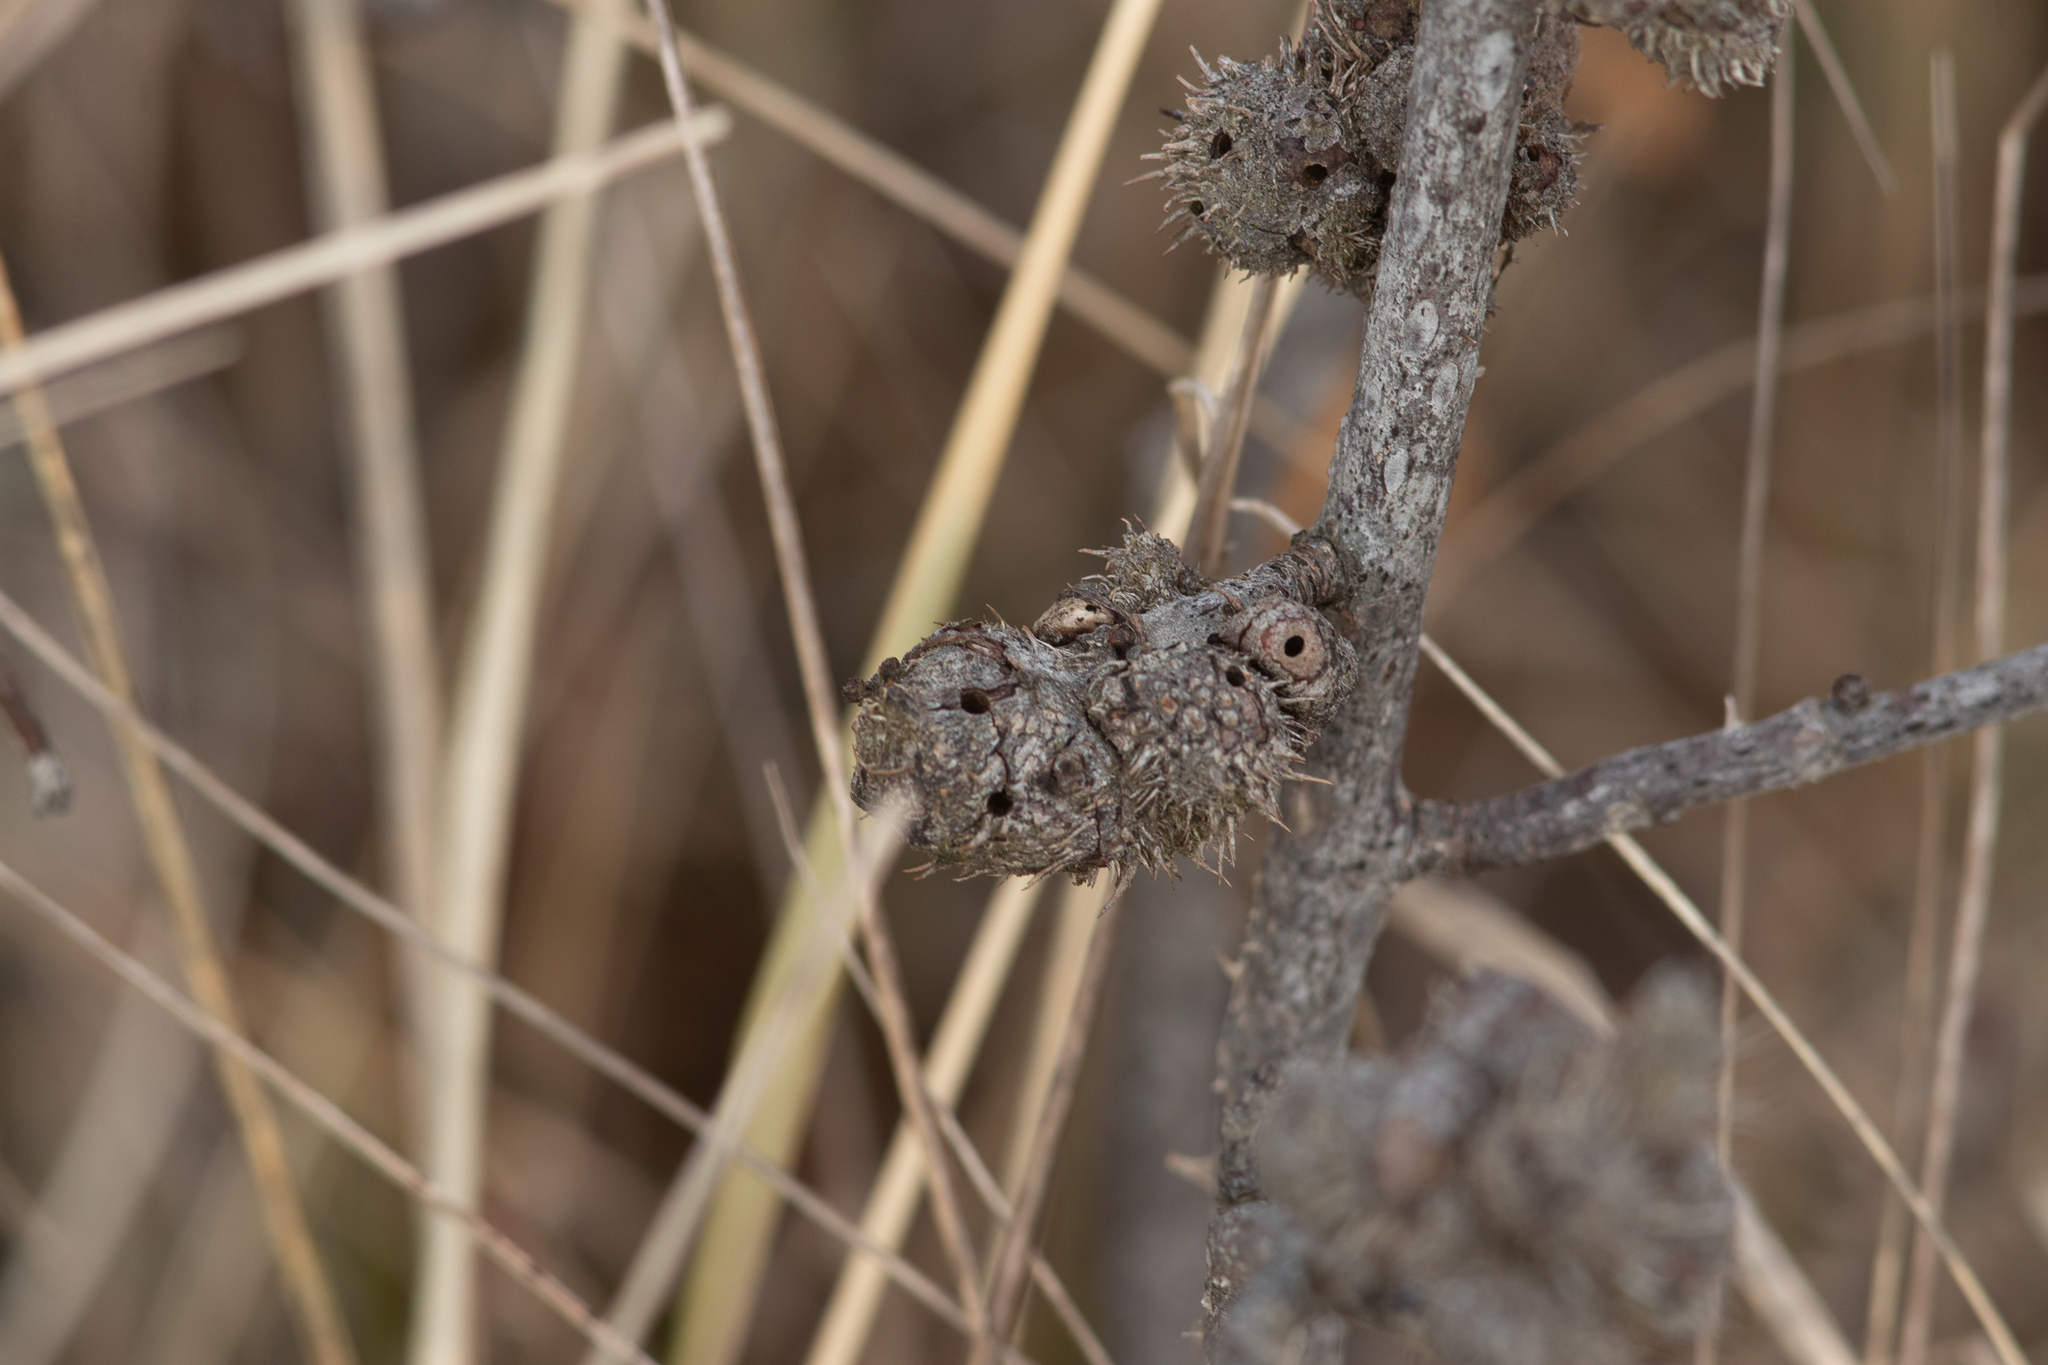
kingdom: Animalia
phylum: Arthropoda
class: Insecta
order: Hymenoptera
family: Cynipidae
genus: Diplolepis
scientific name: Diplolepis spinosa
